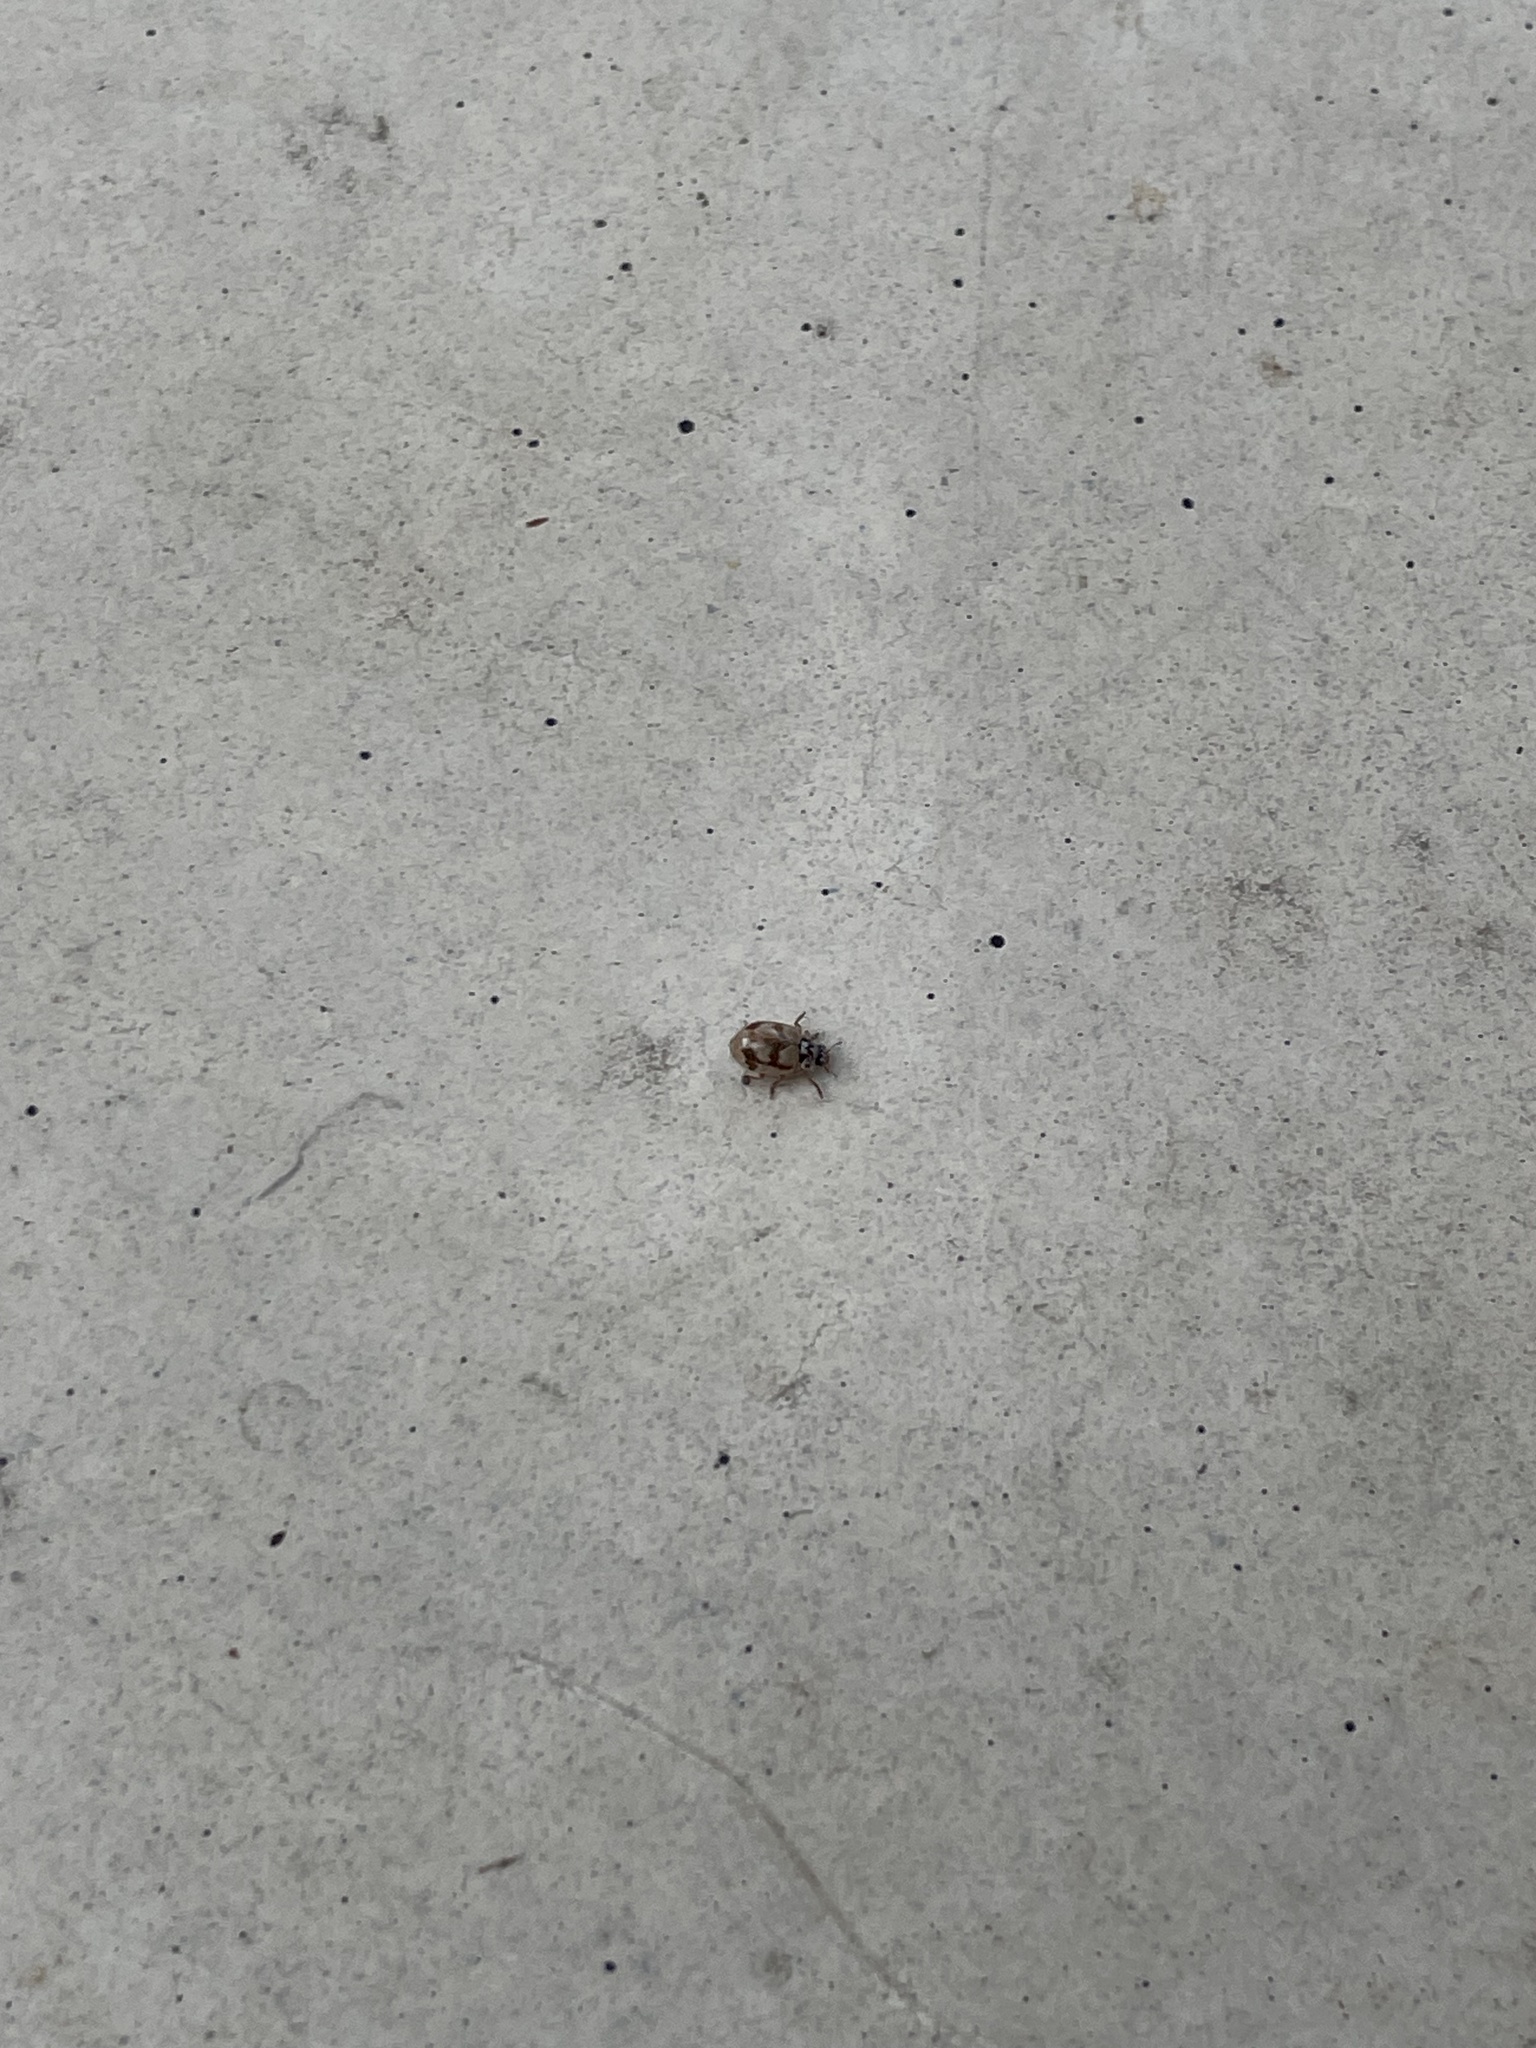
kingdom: Animalia
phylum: Arthropoda
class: Insecta
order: Coleoptera
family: Coccinellidae
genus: Mulsantina
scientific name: Mulsantina picta
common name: Painted ladybird
